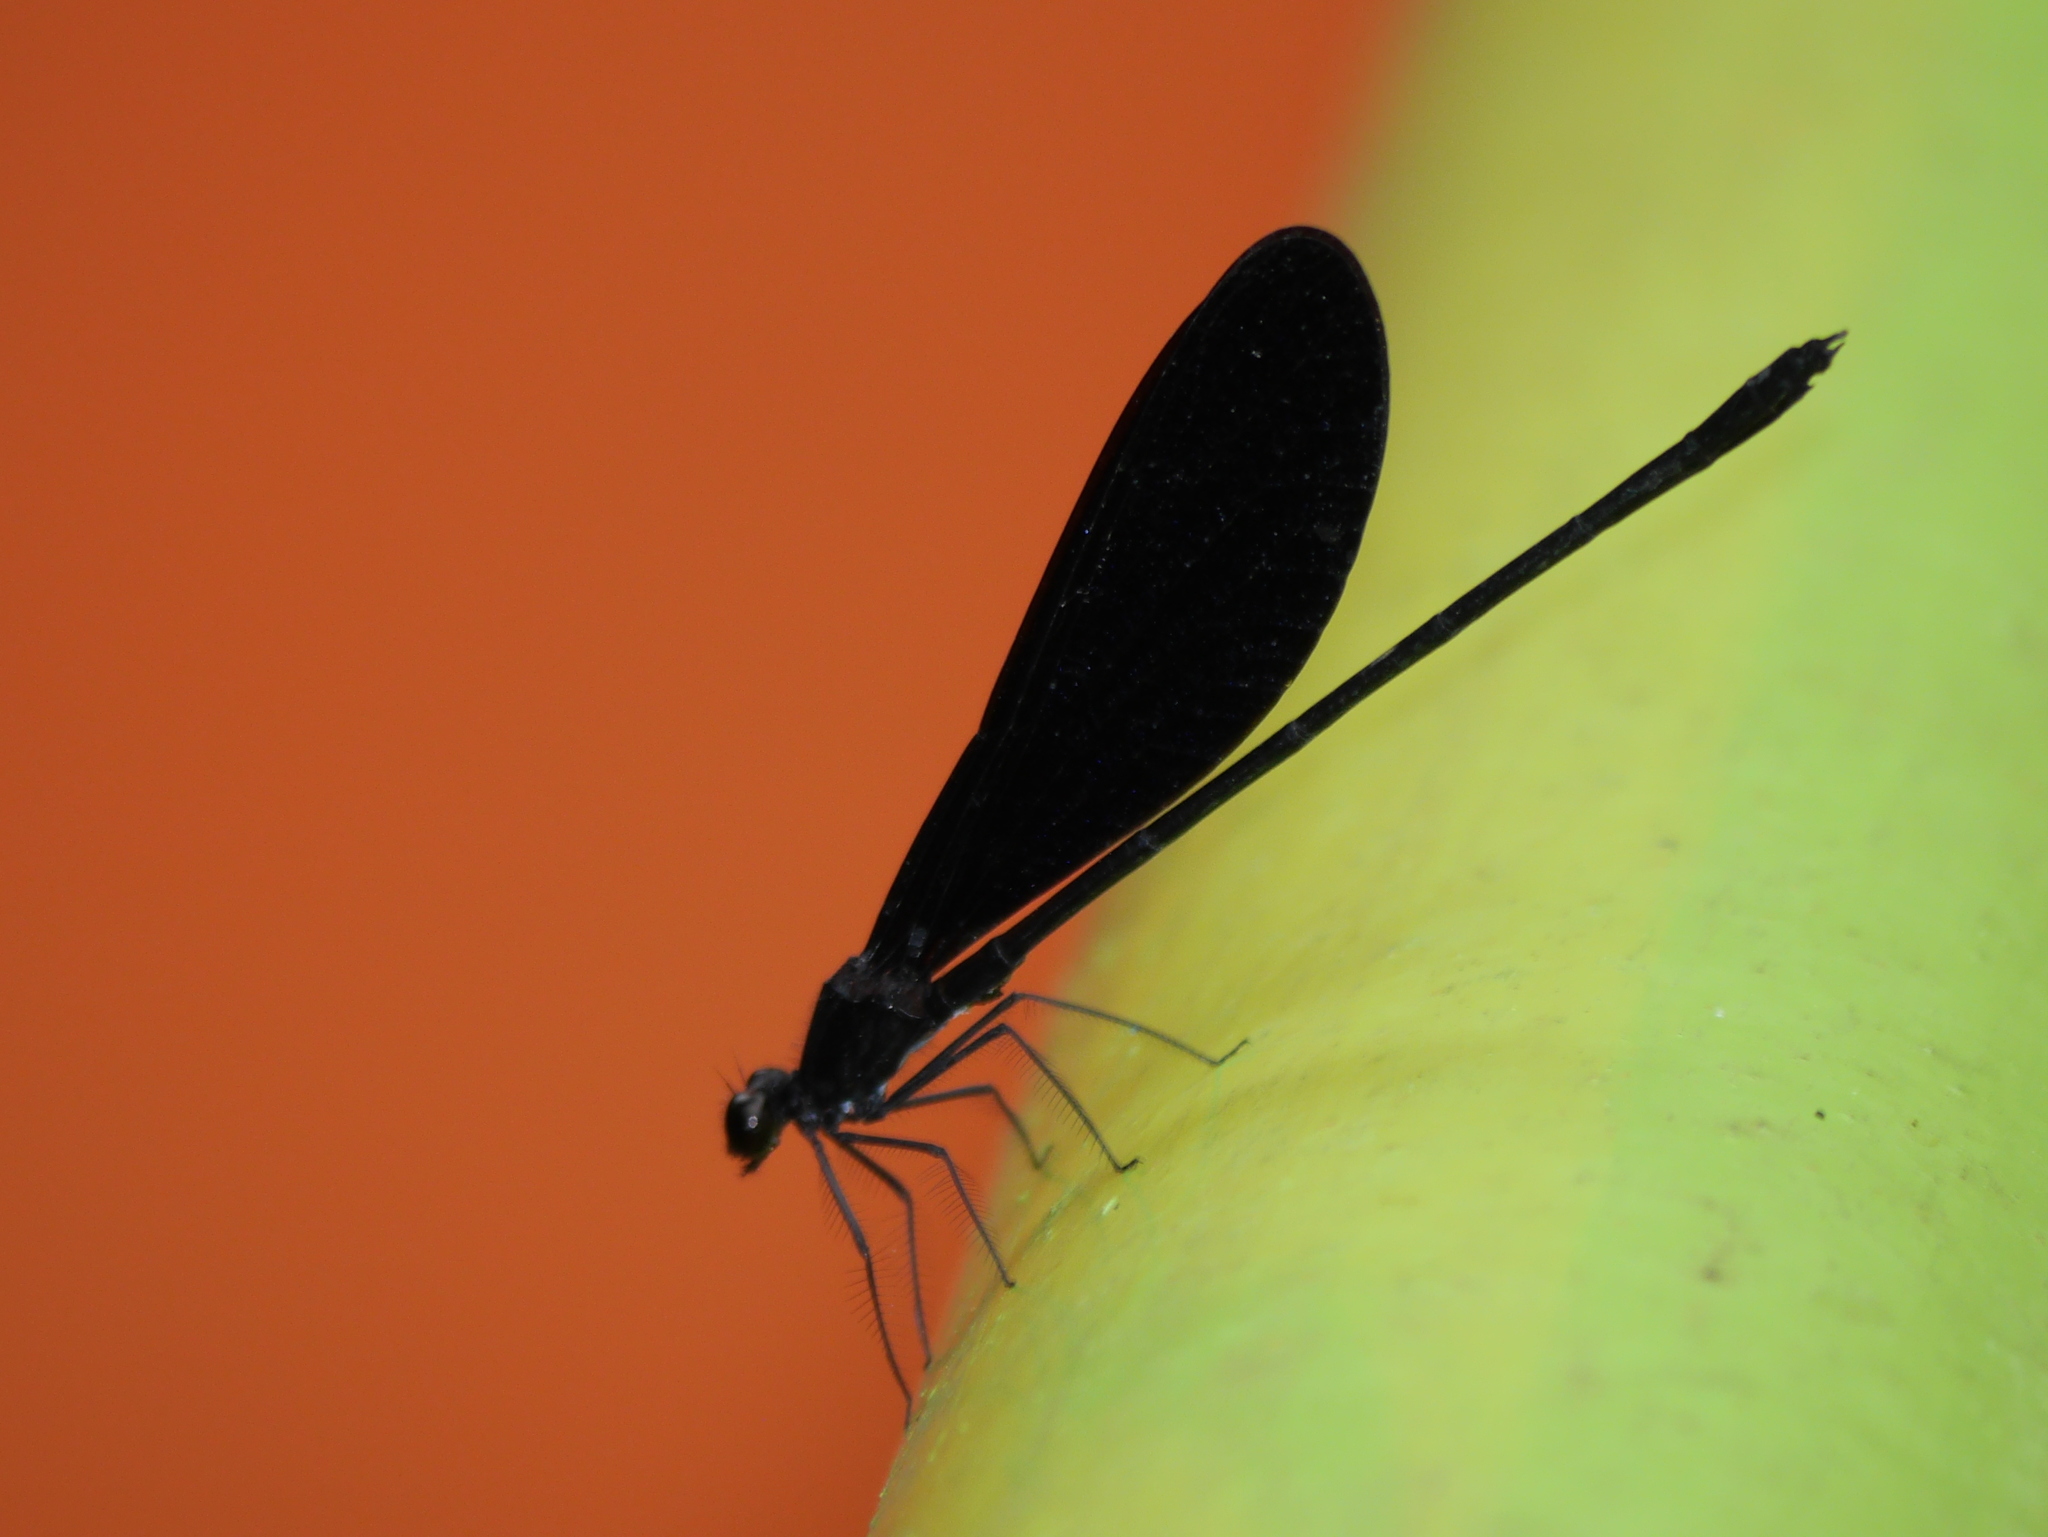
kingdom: Animalia
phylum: Arthropoda
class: Insecta
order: Odonata
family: Calopterygidae
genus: Vestalis
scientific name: Vestalis lugens
